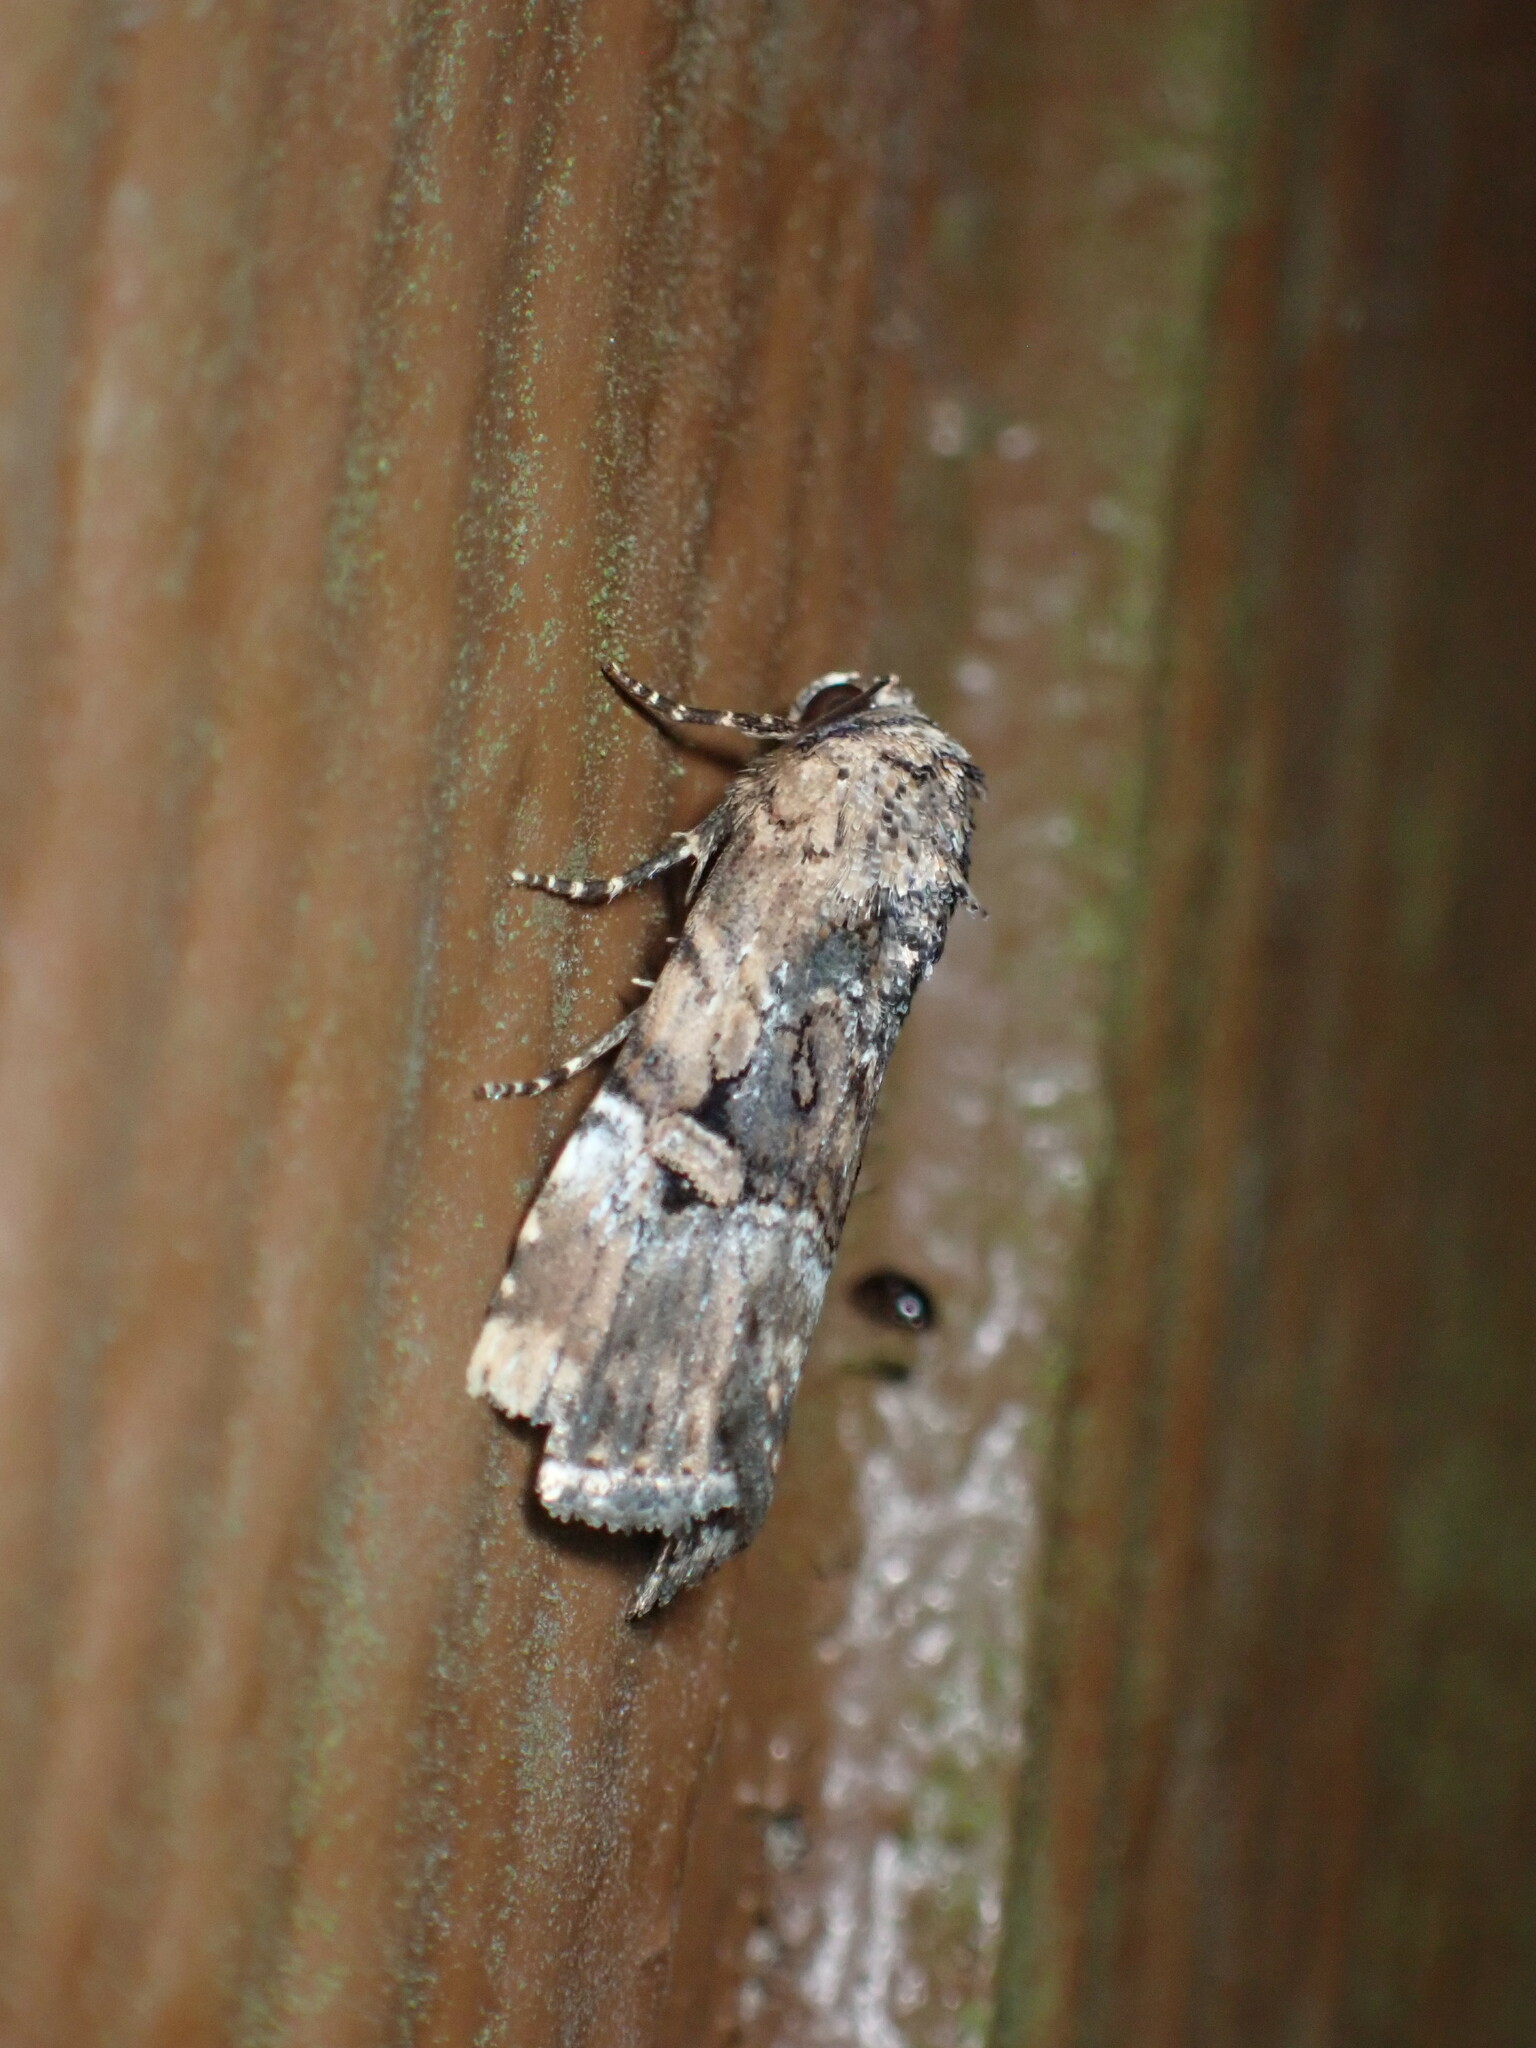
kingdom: Animalia
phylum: Arthropoda
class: Insecta
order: Lepidoptera
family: Noctuidae
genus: Elaphria
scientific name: Elaphria chalcedonia
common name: Chalcedony midget
